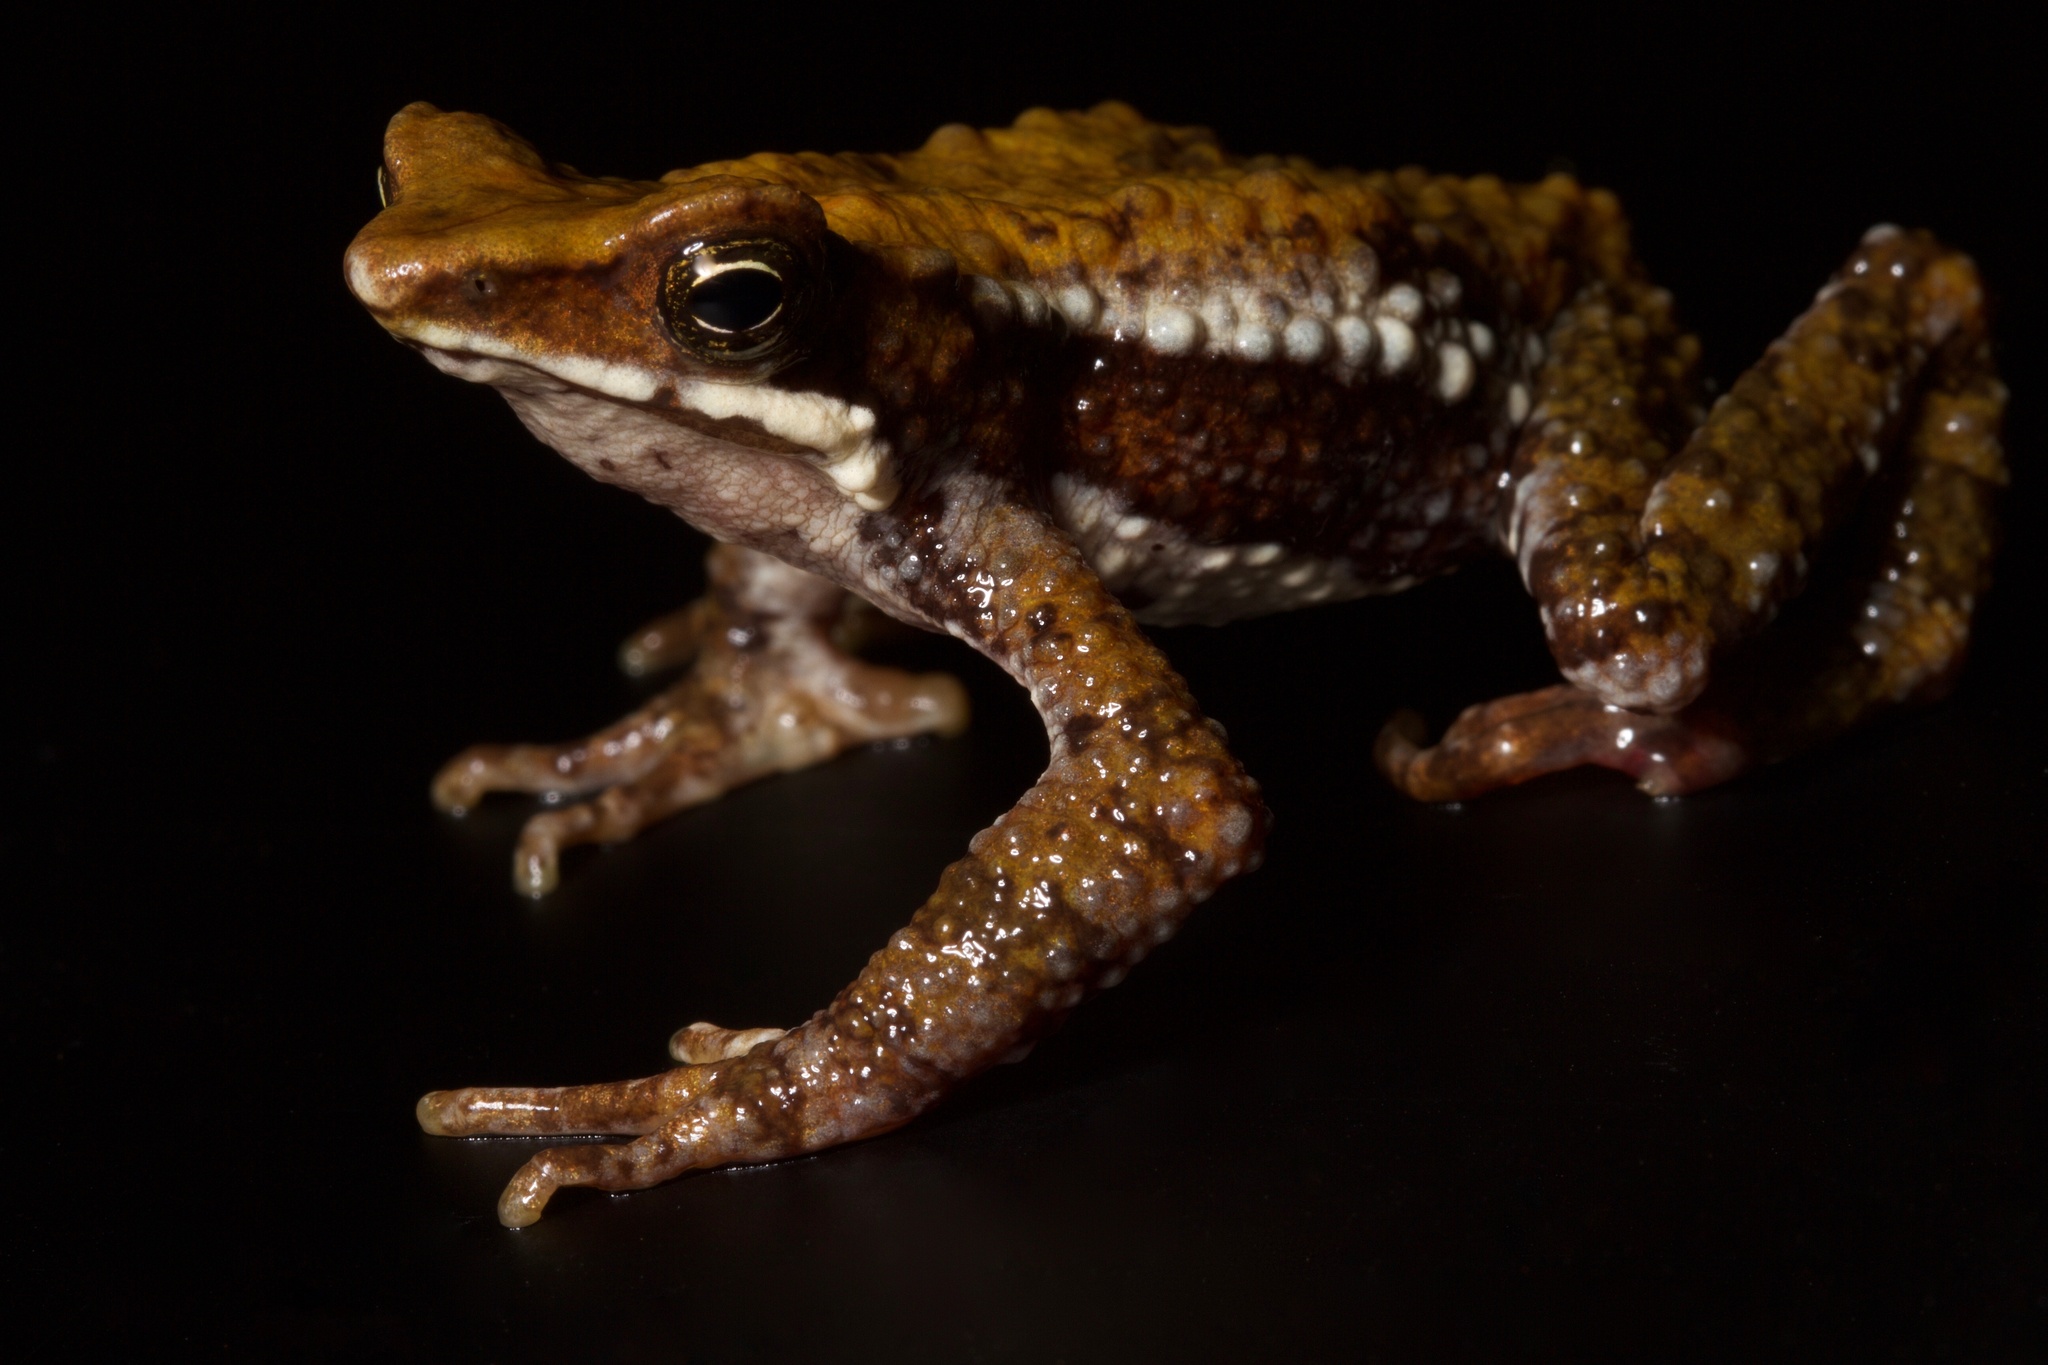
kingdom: Animalia
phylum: Chordata
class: Amphibia
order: Anura
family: Bufonidae
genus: Atelopus
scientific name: Atelopus laetissimus
